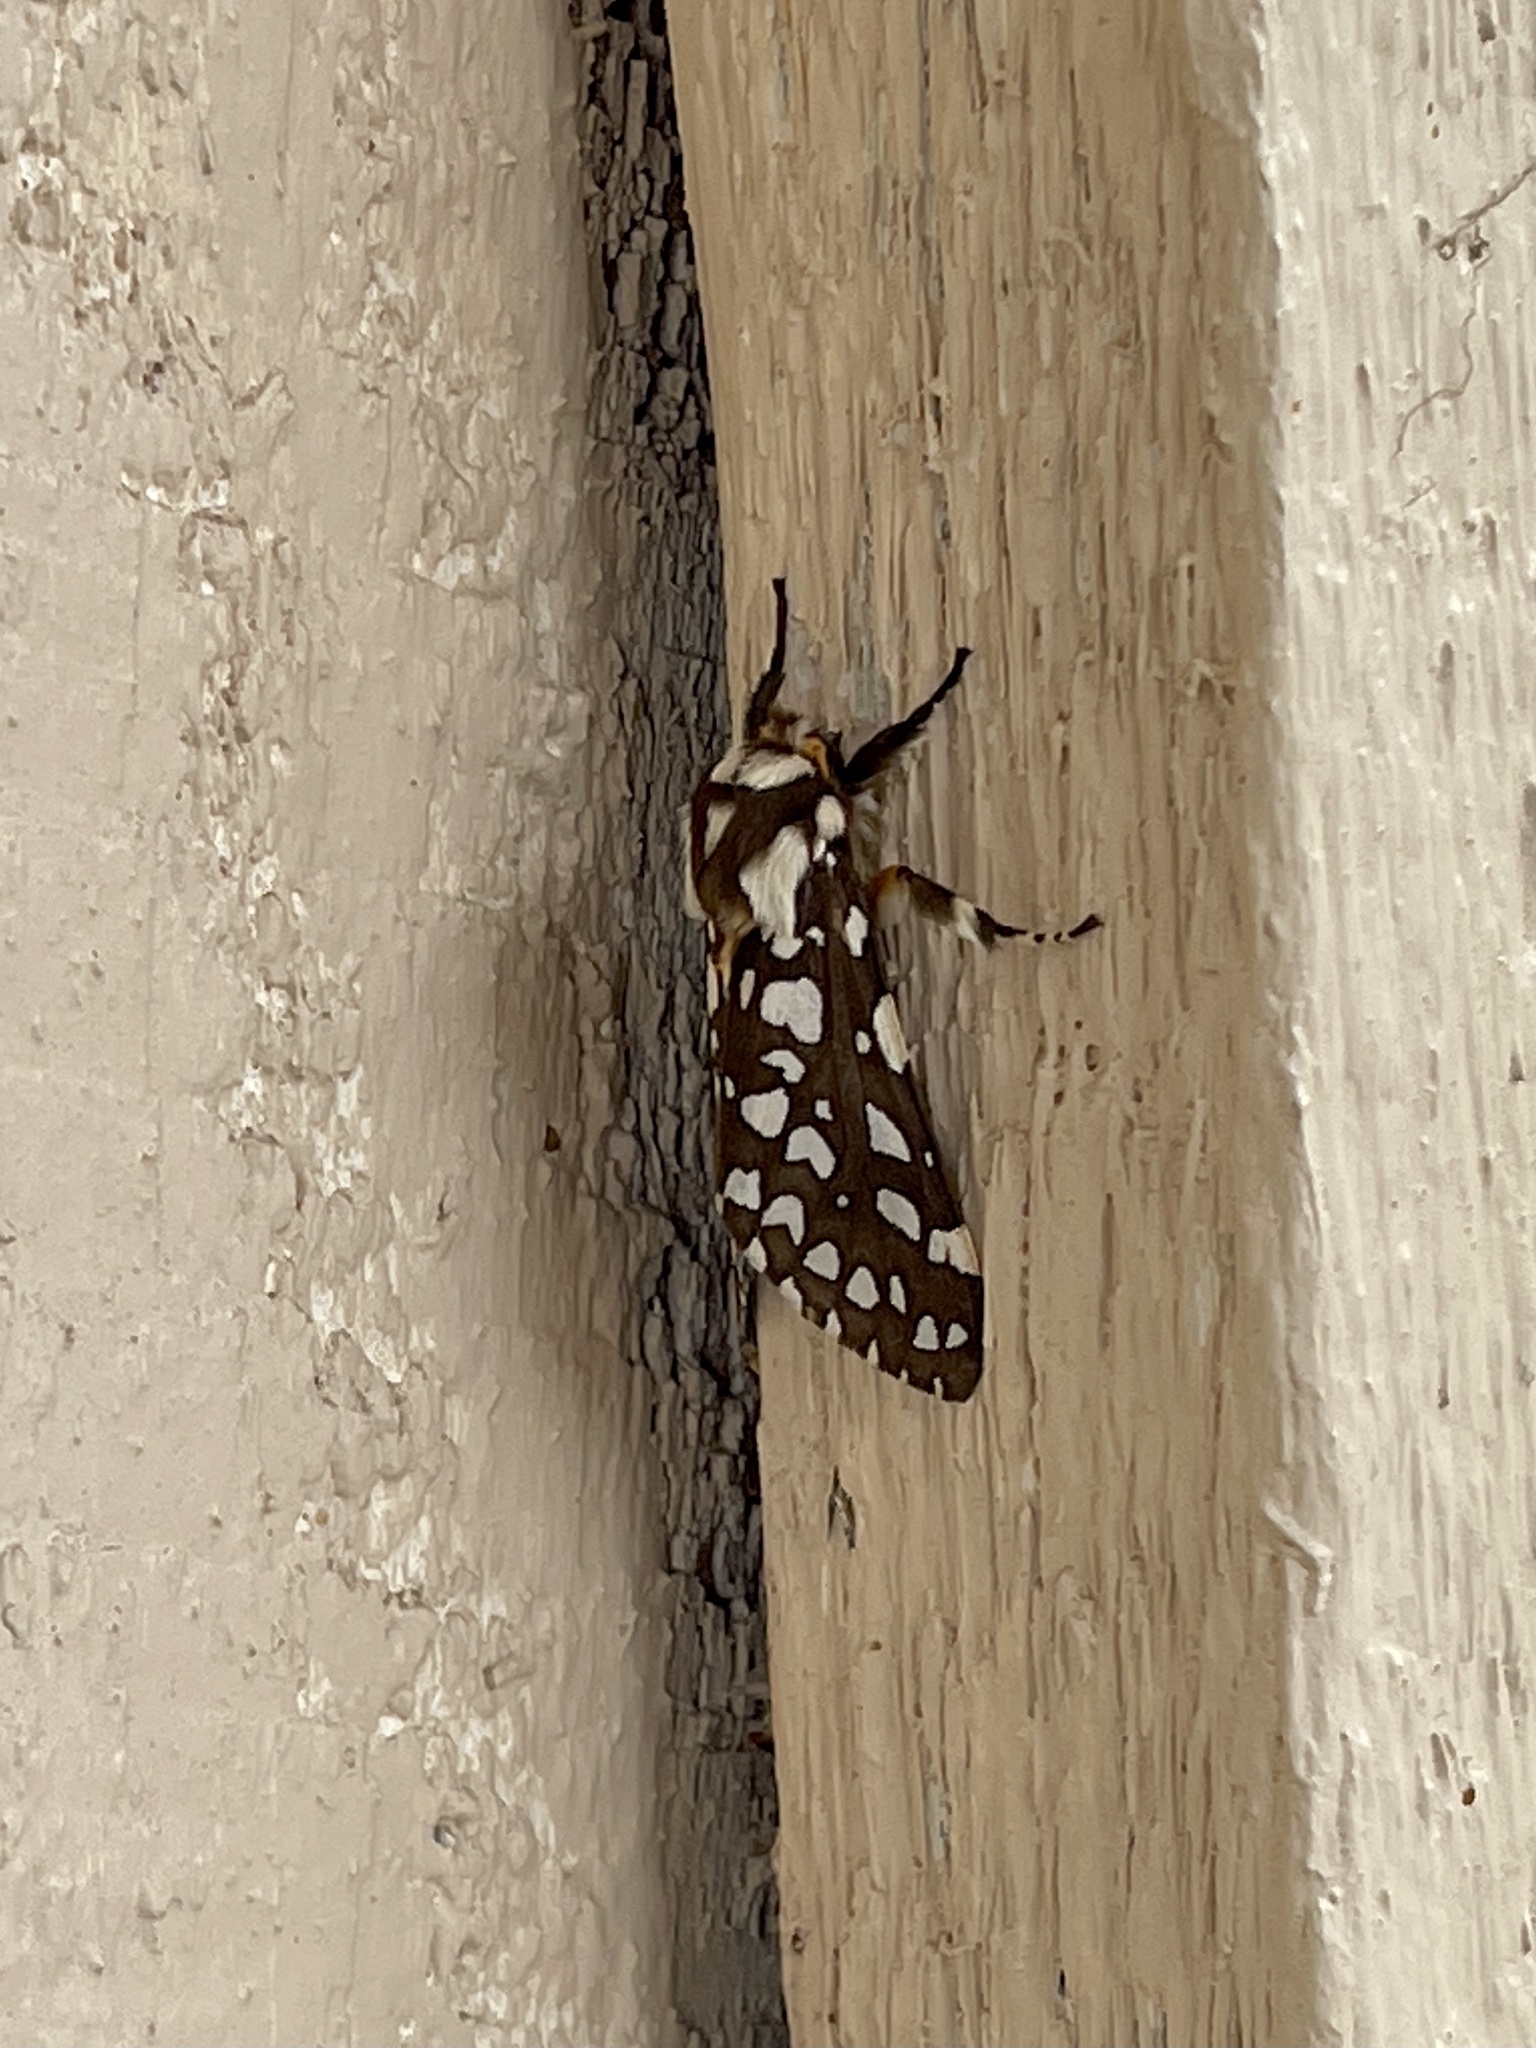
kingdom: Animalia
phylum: Arthropoda
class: Insecta
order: Lepidoptera
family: Erebidae
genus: Lophocampa
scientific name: Lophocampa ingens
